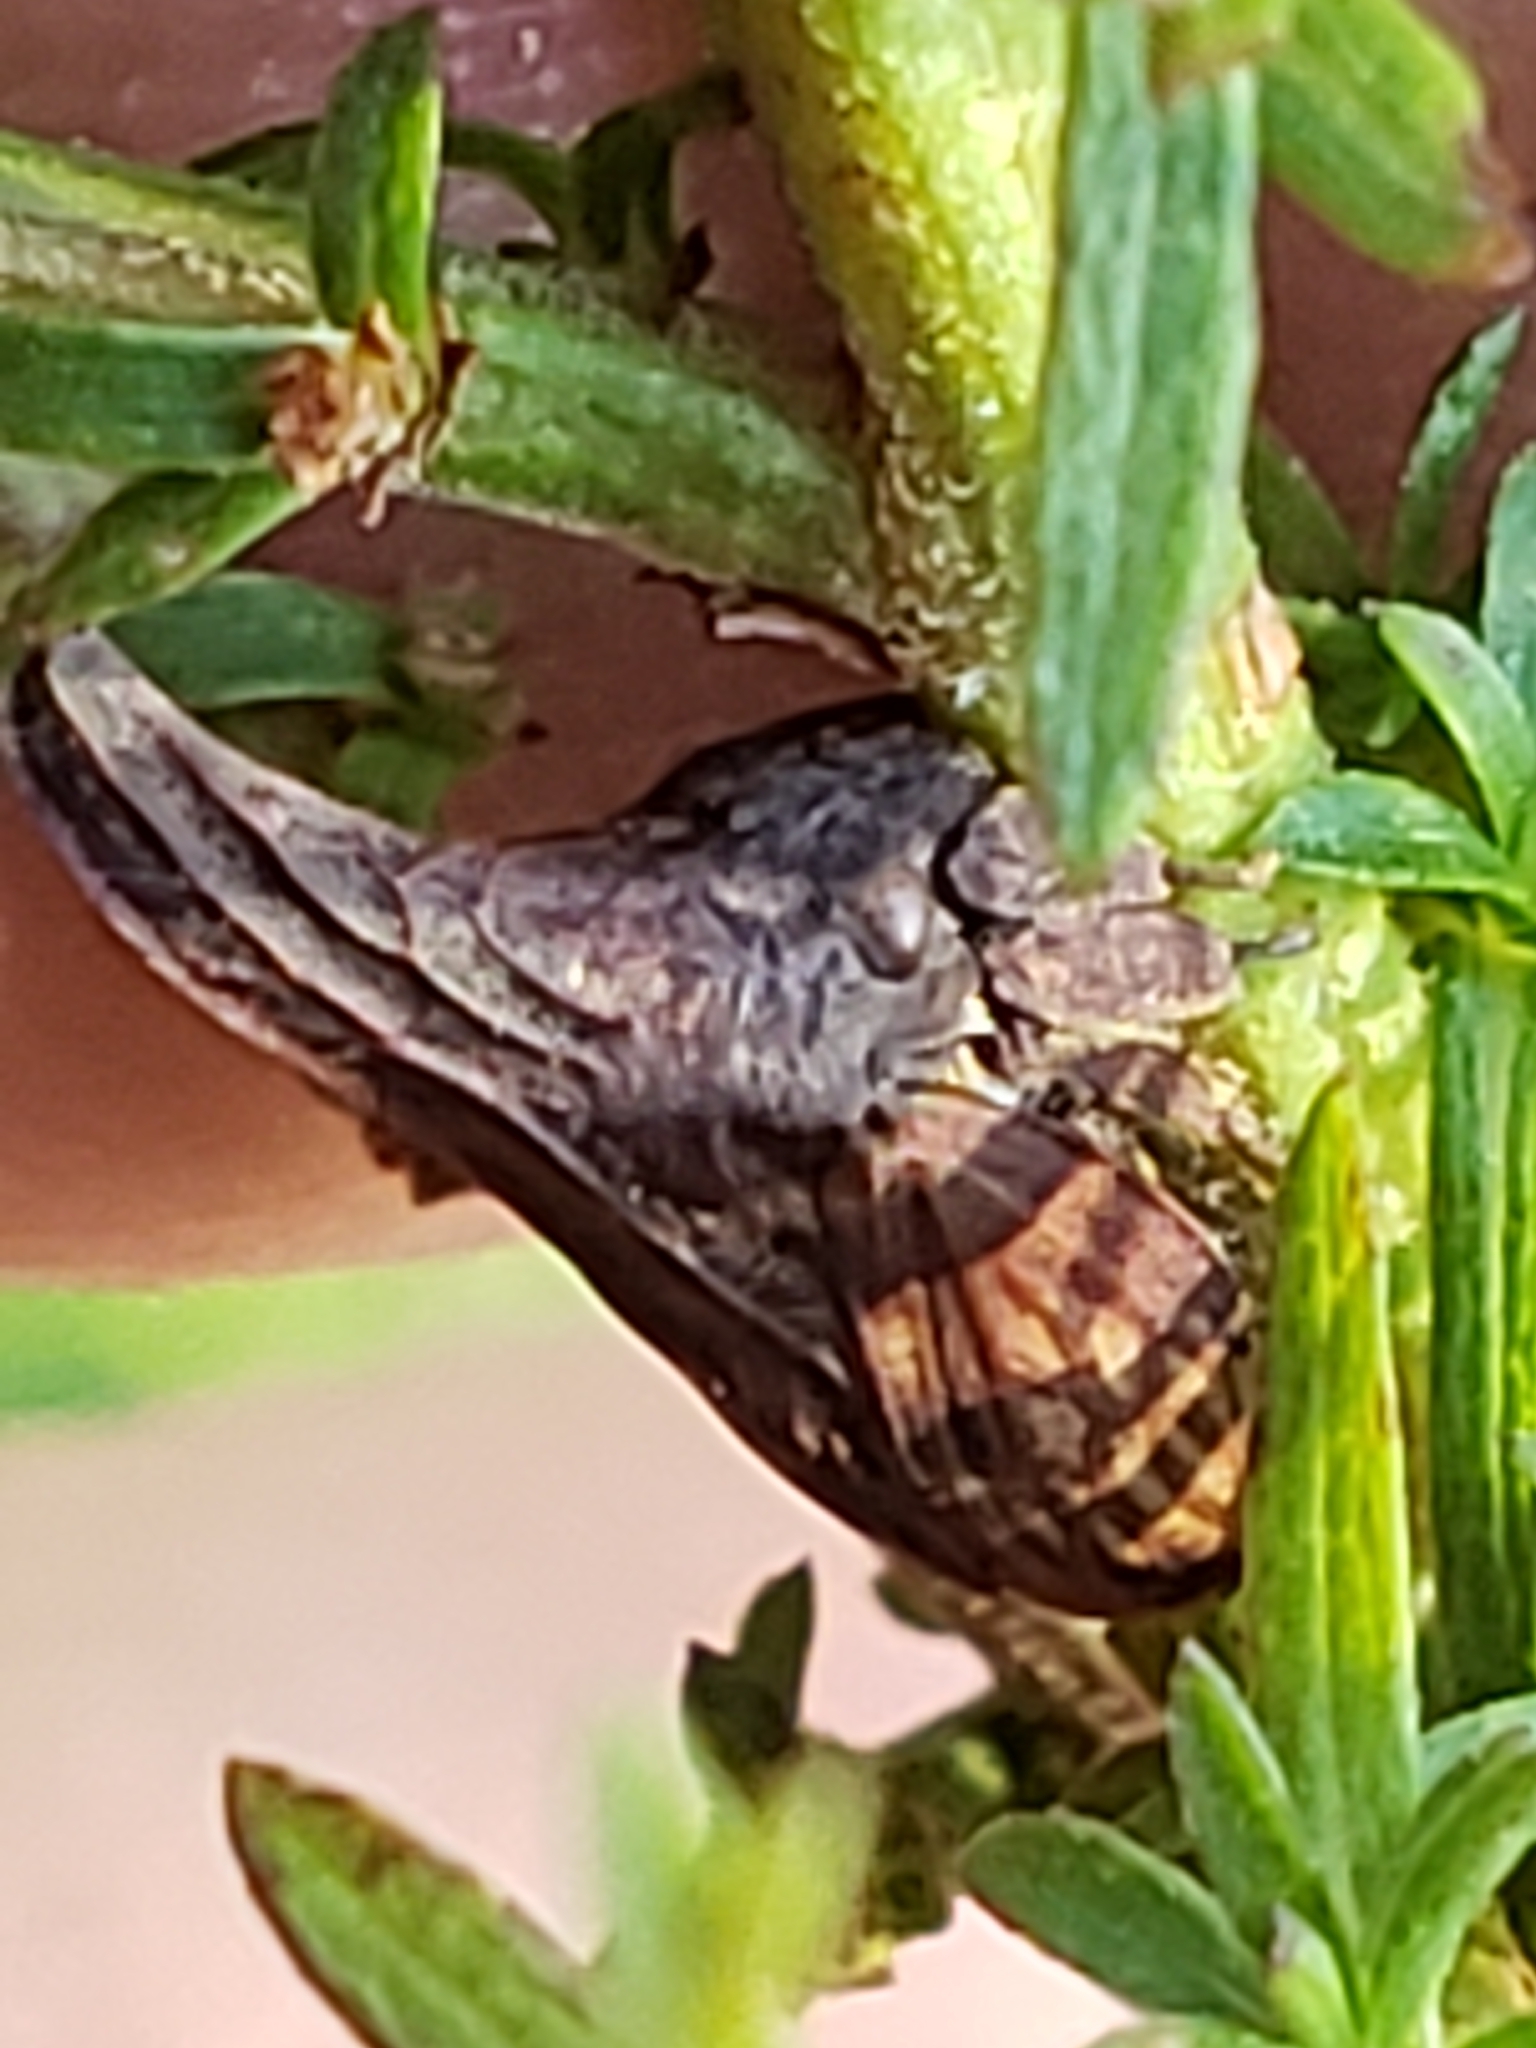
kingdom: Animalia
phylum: Arthropoda
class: Insecta
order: Hemiptera
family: Membracidae
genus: Enchenopa
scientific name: Enchenopa latipes
